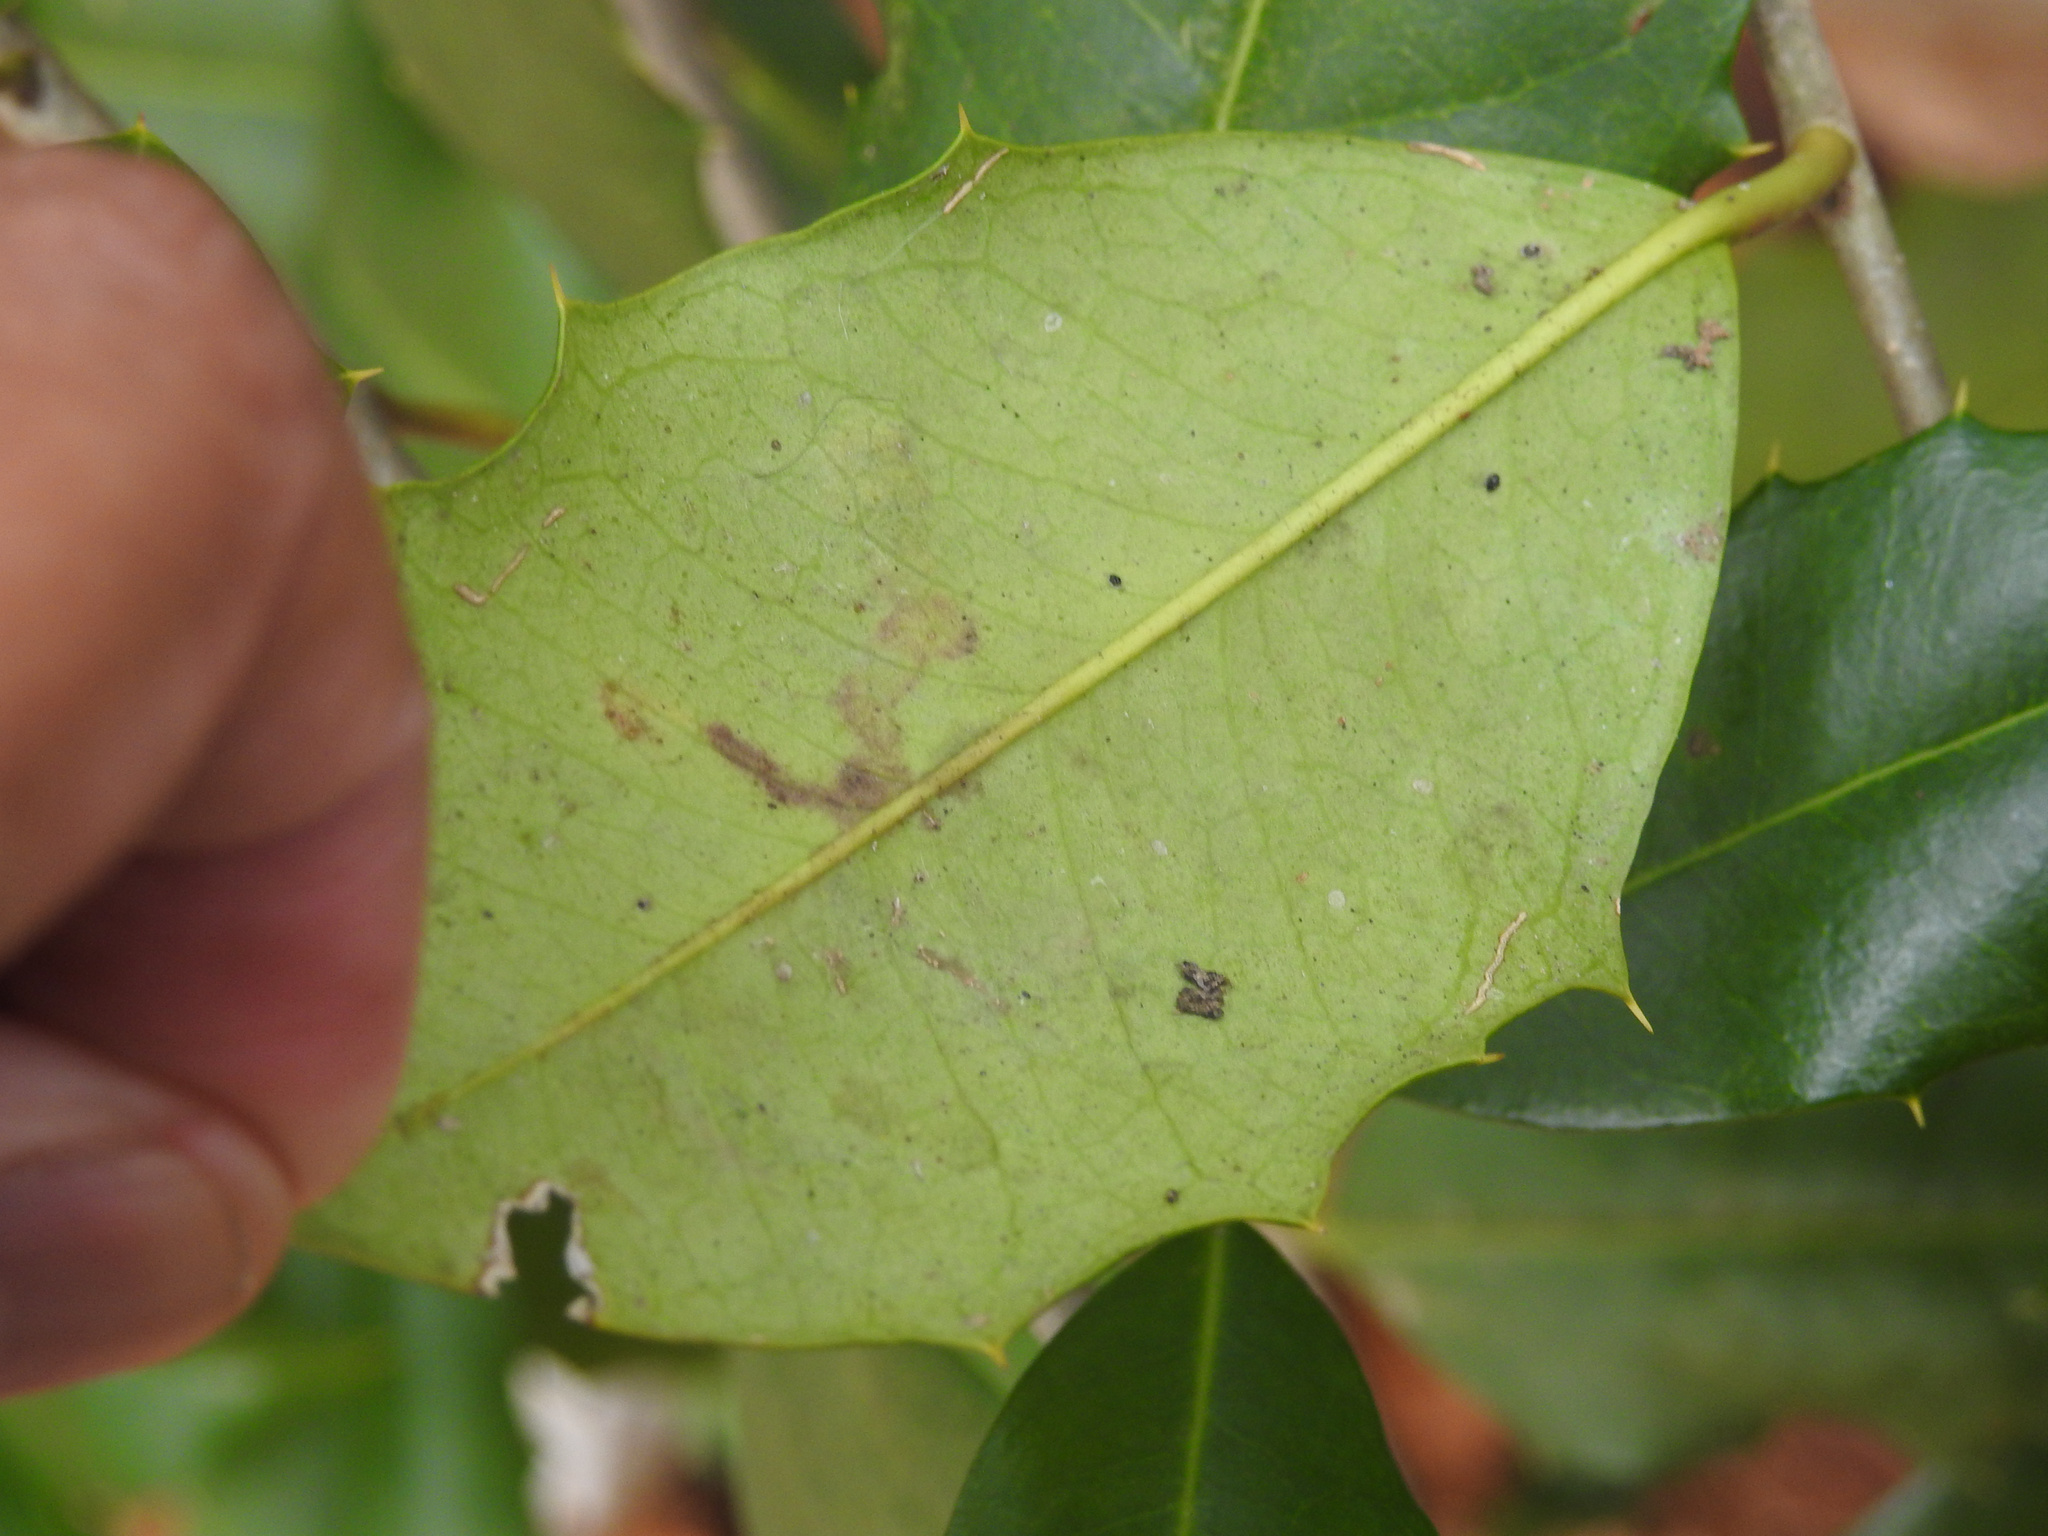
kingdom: Animalia
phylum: Arthropoda
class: Insecta
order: Diptera
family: Agromyzidae
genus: Phytomyza
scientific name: Phytomyza ilicicola
